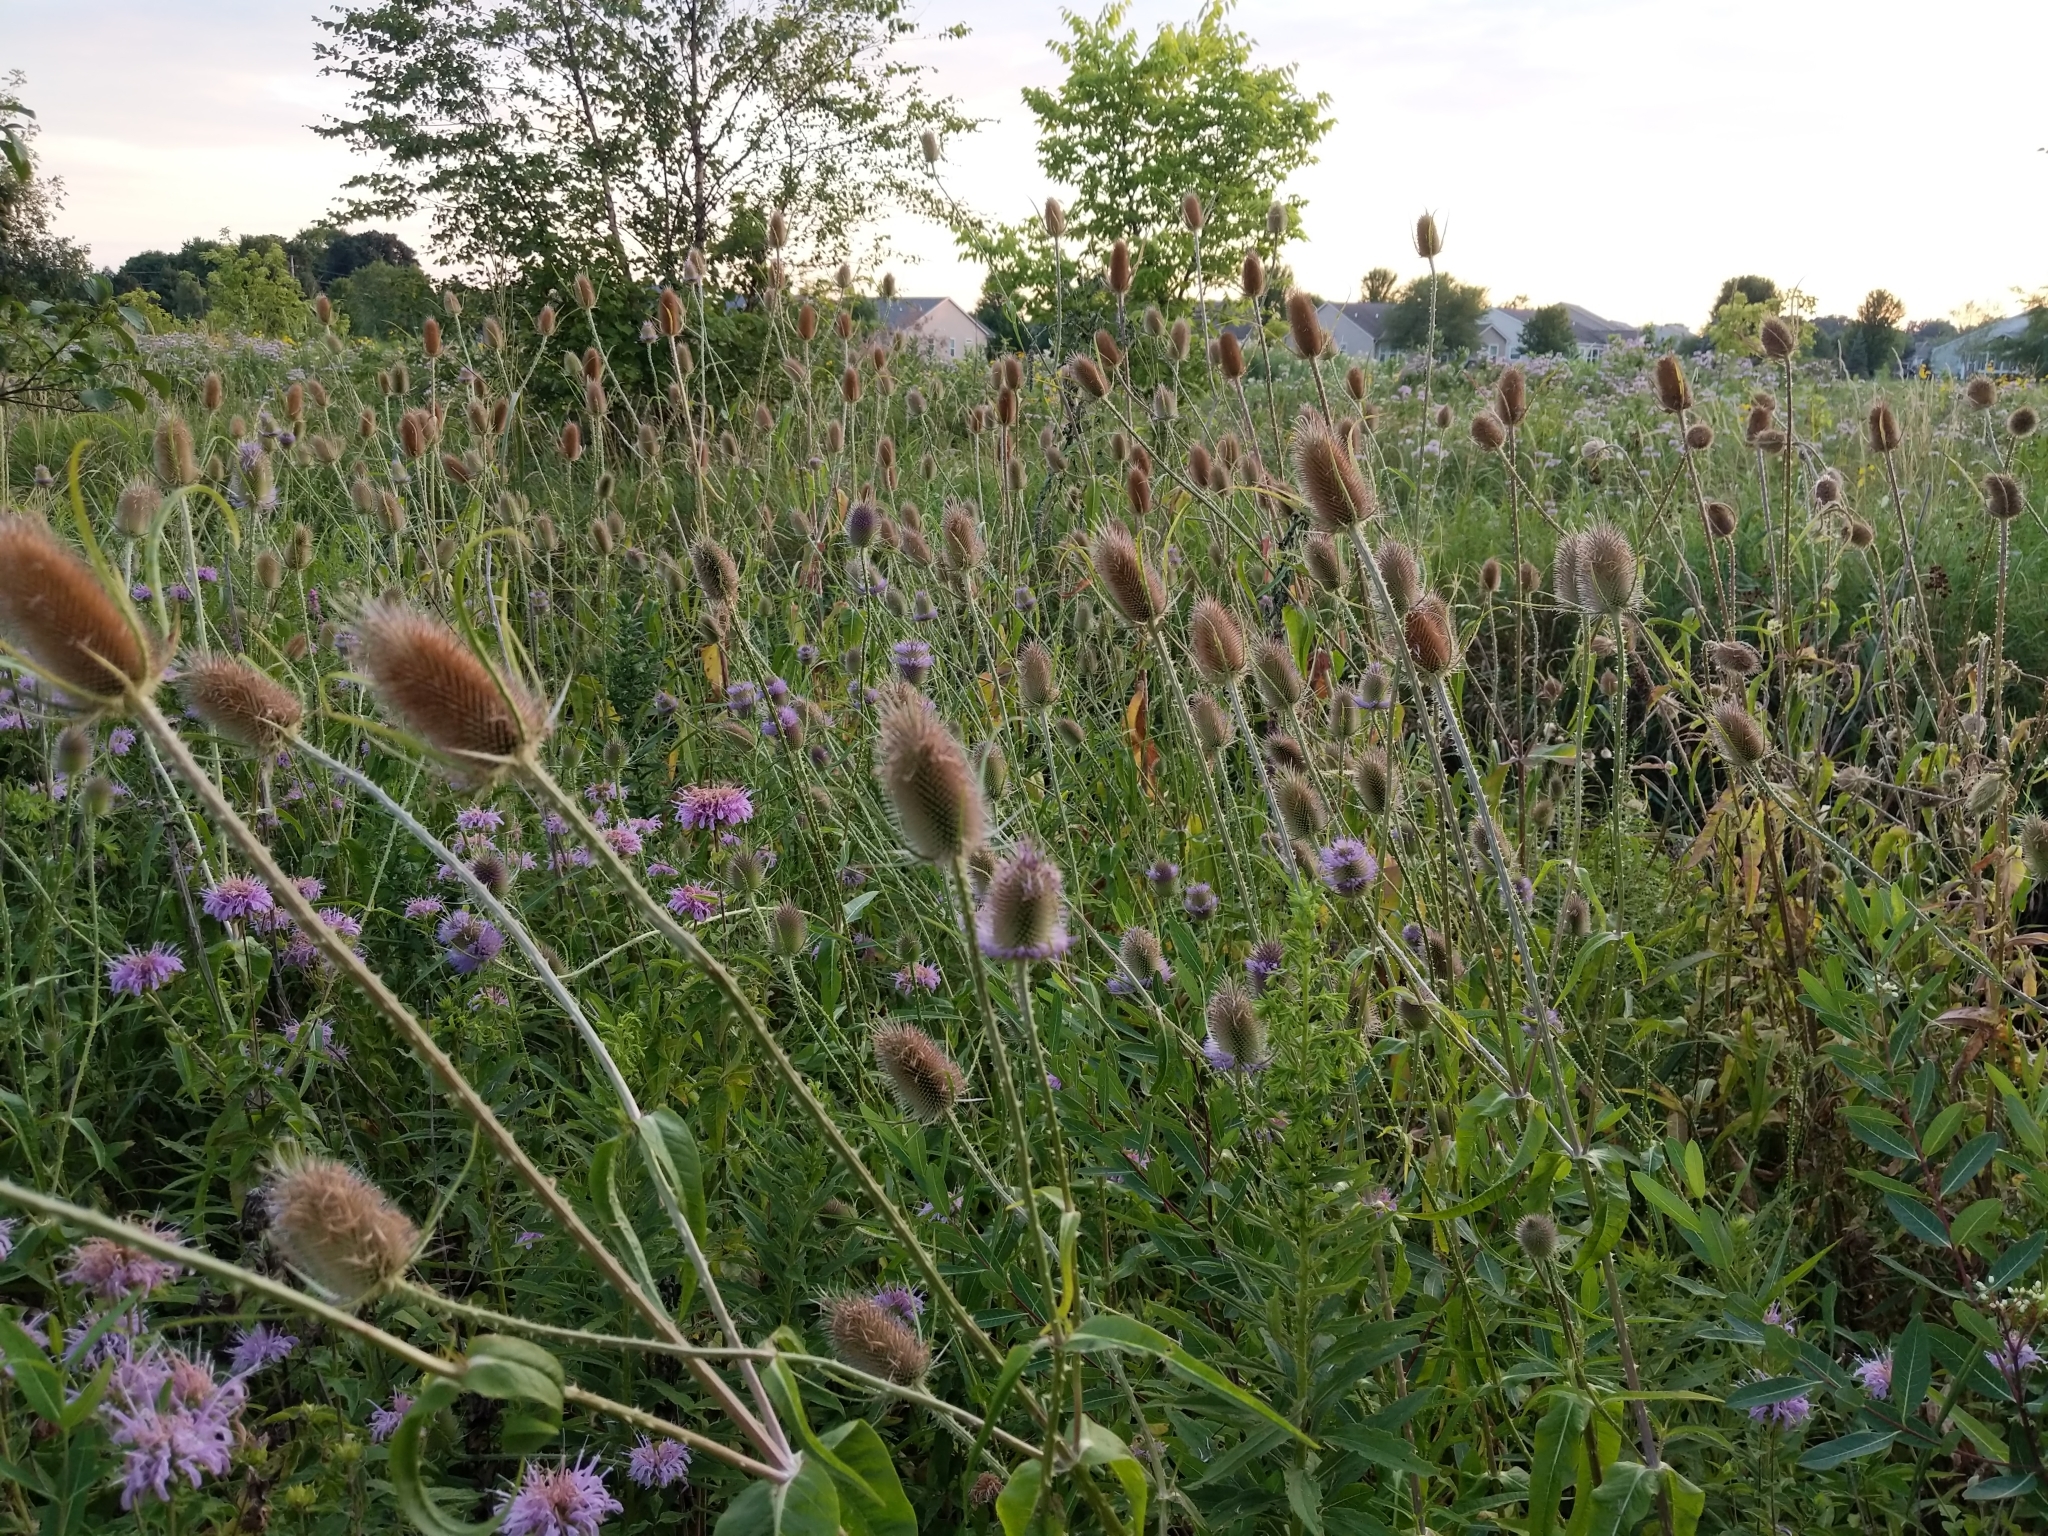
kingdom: Plantae
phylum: Tracheophyta
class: Magnoliopsida
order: Dipsacales
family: Caprifoliaceae
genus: Dipsacus
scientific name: Dipsacus fullonum
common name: Teasel
